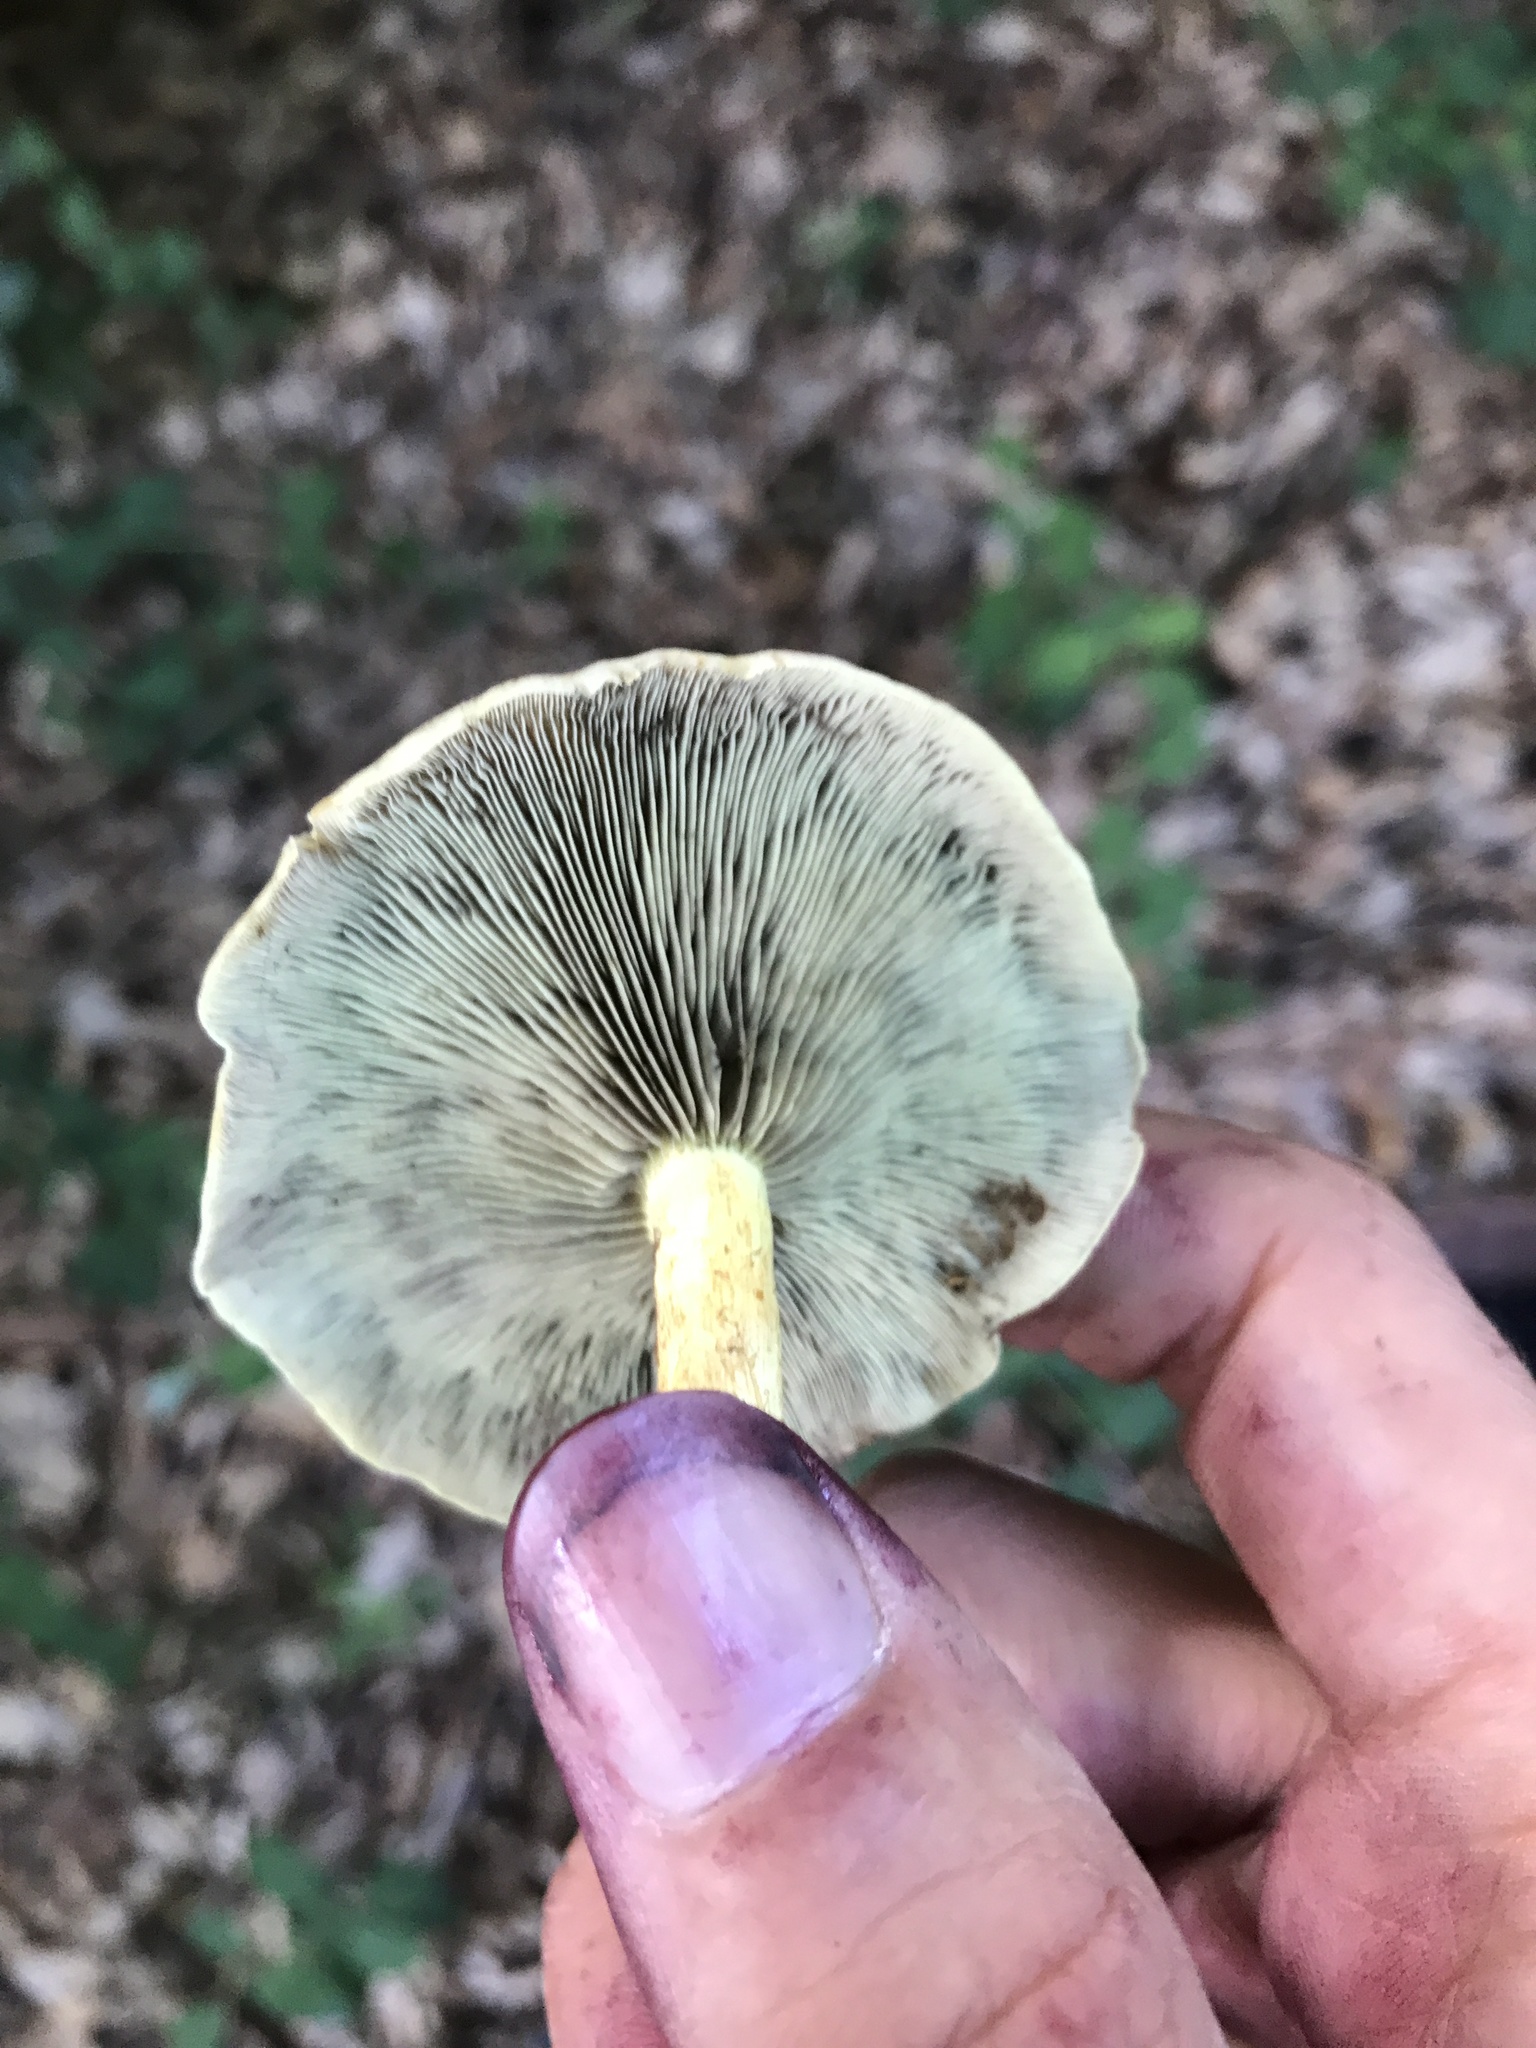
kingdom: Fungi
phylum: Basidiomycota
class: Agaricomycetes
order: Agaricales
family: Strophariaceae
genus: Hypholoma
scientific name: Hypholoma fasciculare
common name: Sulphur tuft
